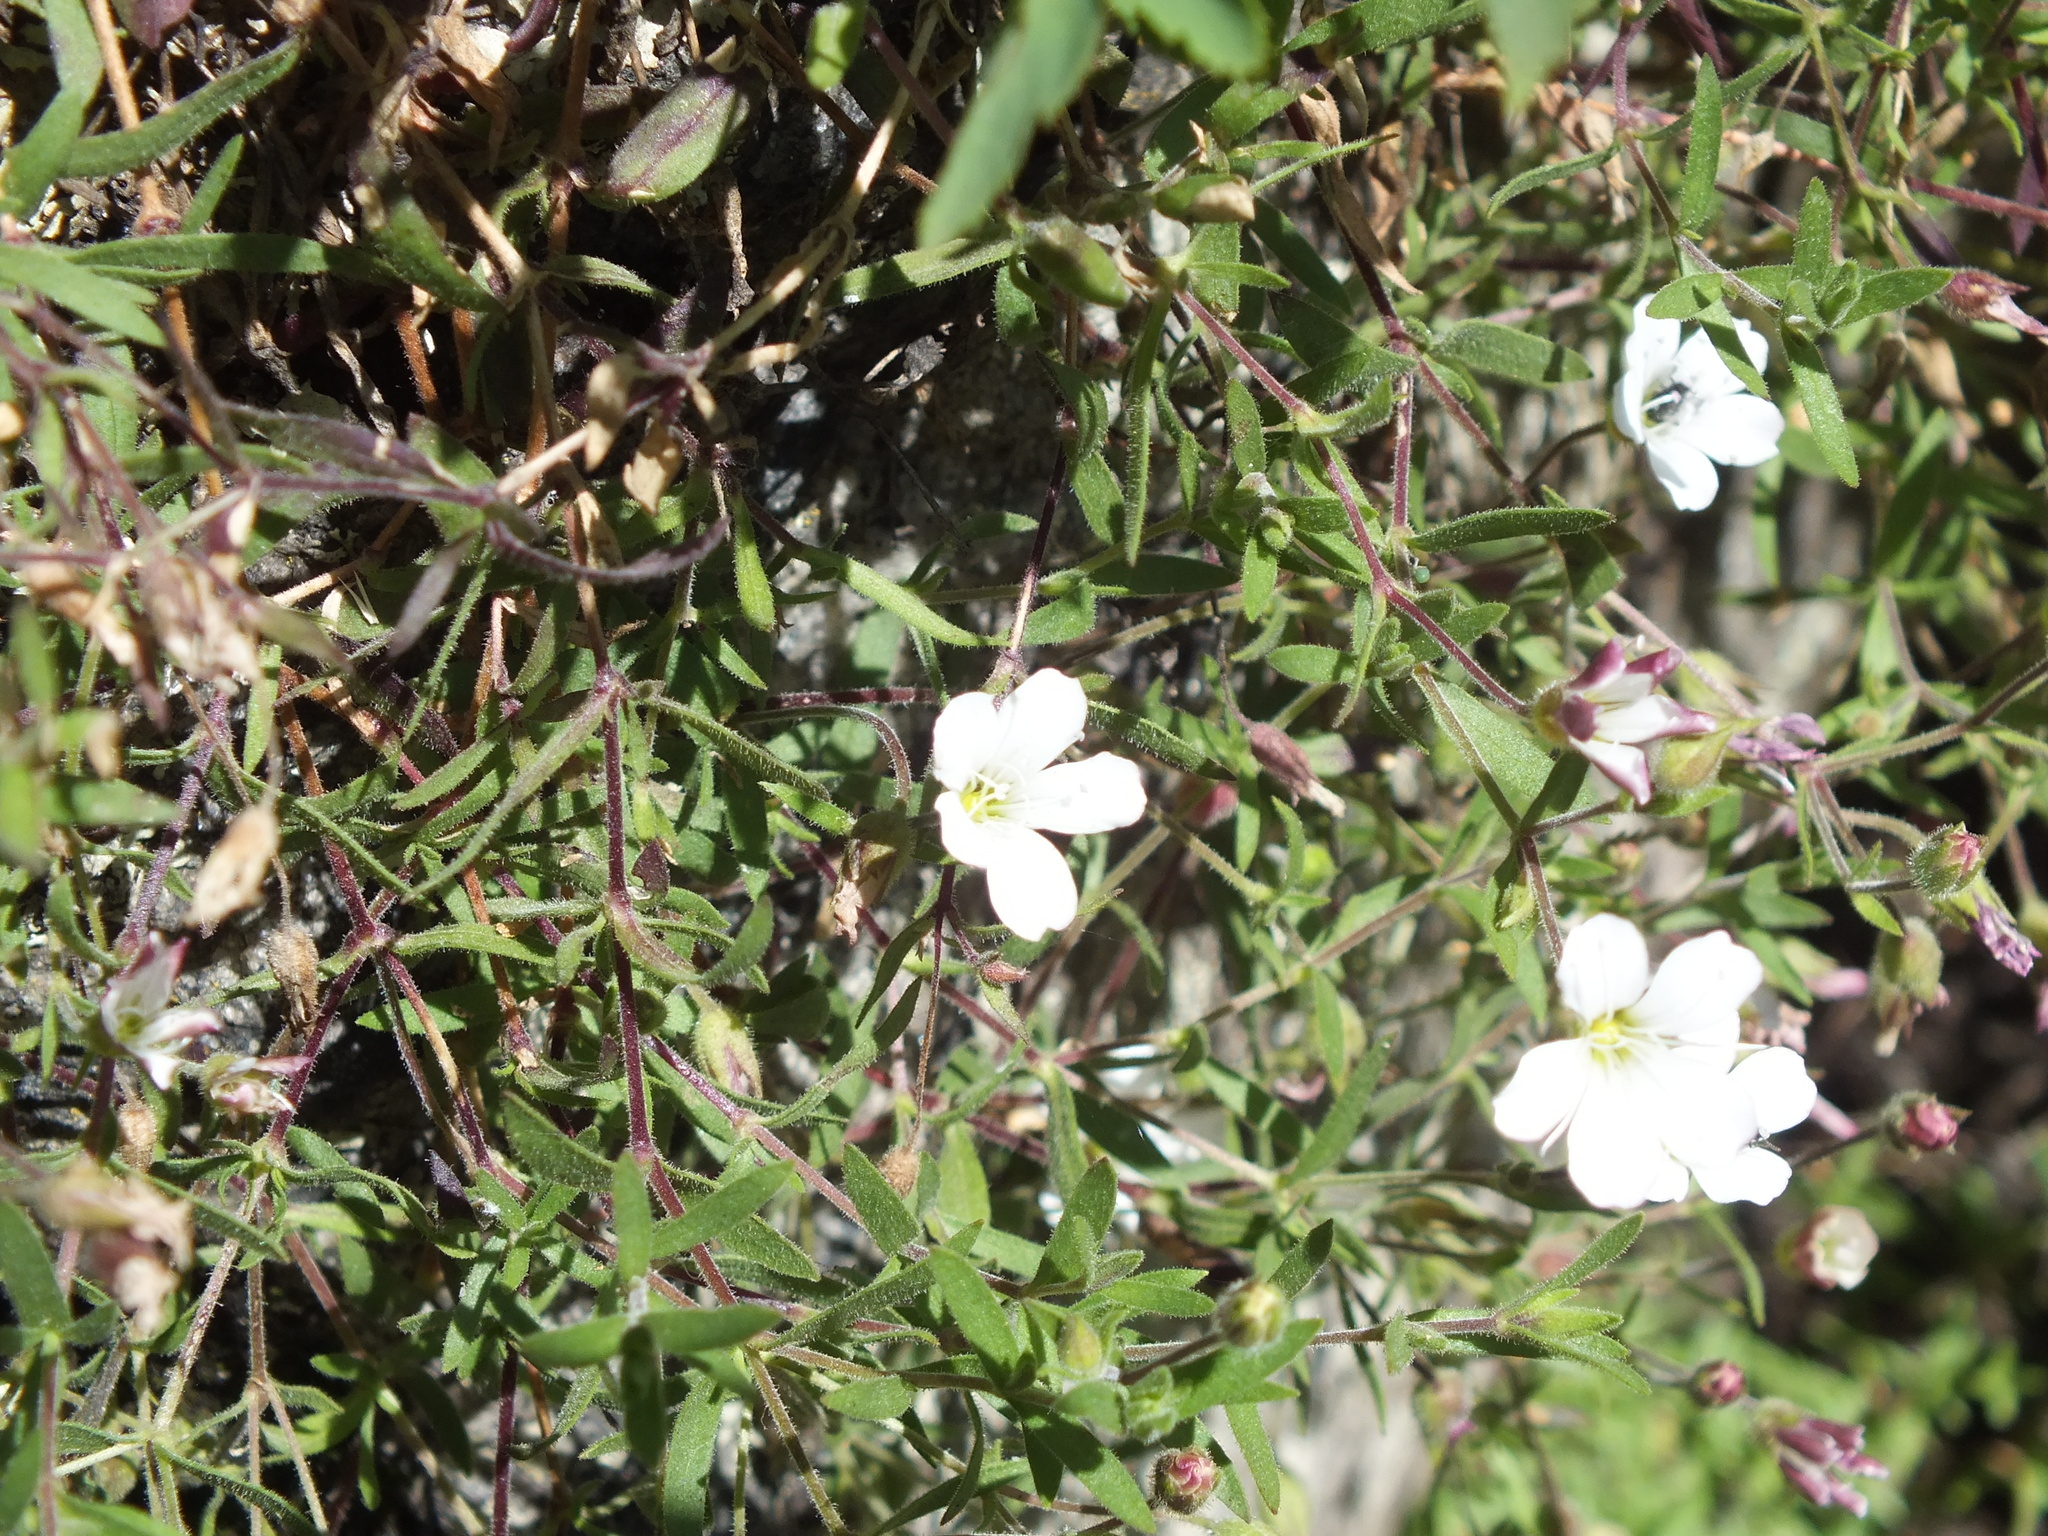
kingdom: Plantae
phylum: Tracheophyta
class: Magnoliopsida
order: Caryophyllales
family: Caryophyllaceae
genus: Heterochroa
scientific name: Heterochroa petraea
